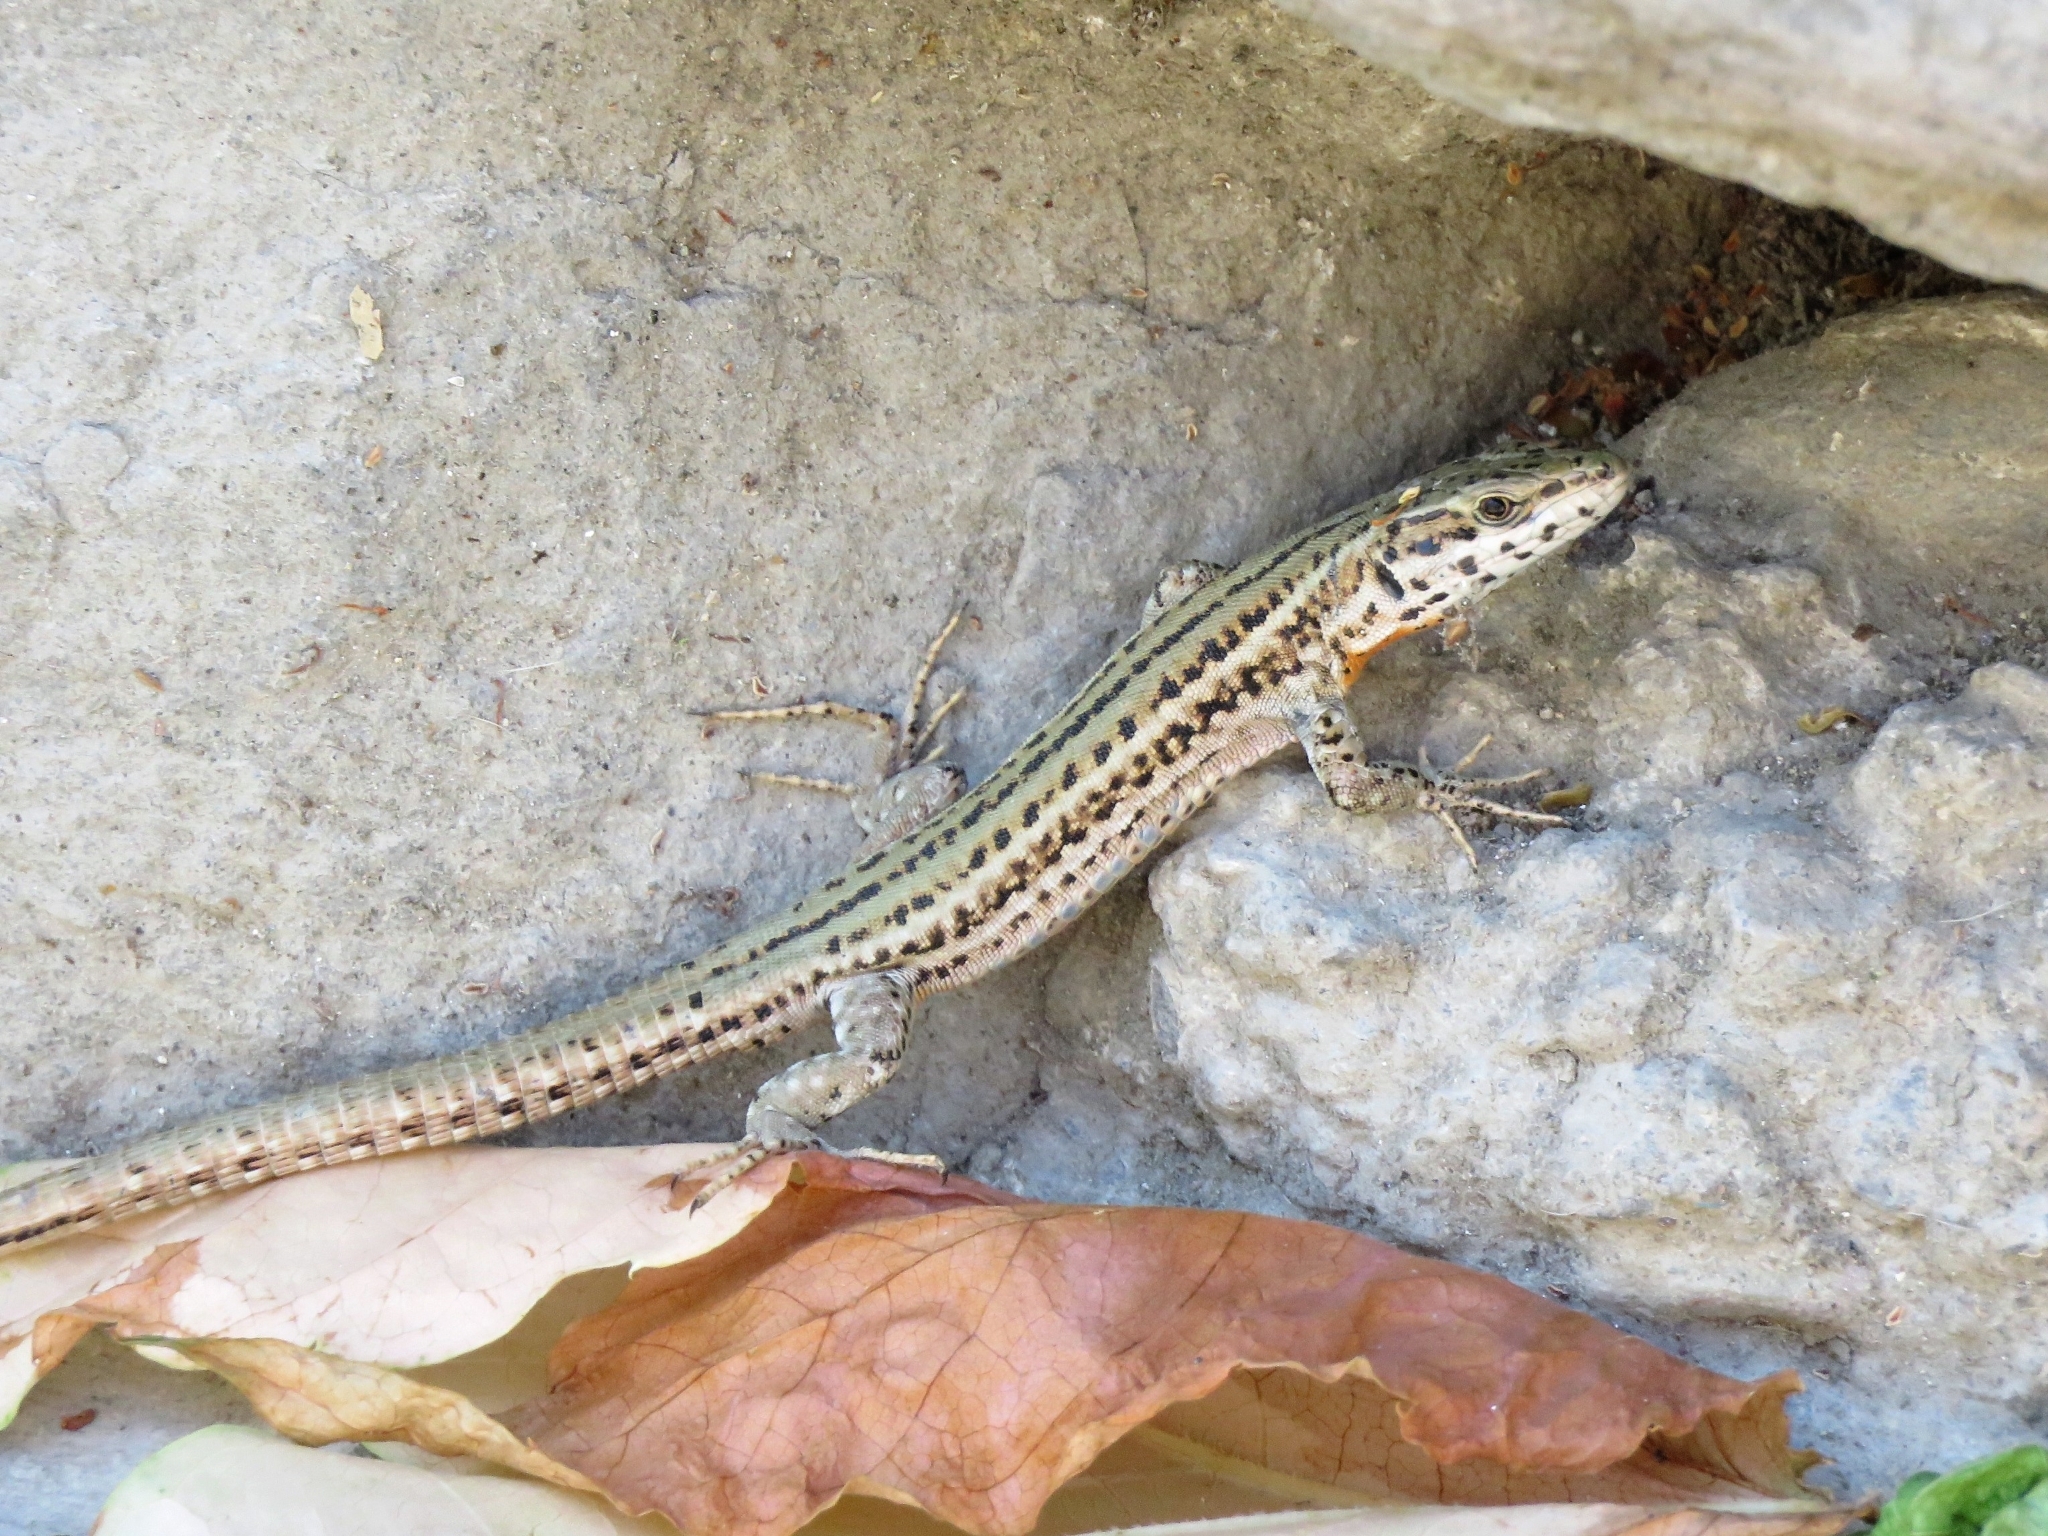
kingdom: Animalia
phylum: Chordata
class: Squamata
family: Lacertidae
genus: Podarcis
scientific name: Podarcis liolepis
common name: Catalonian wall lizard
